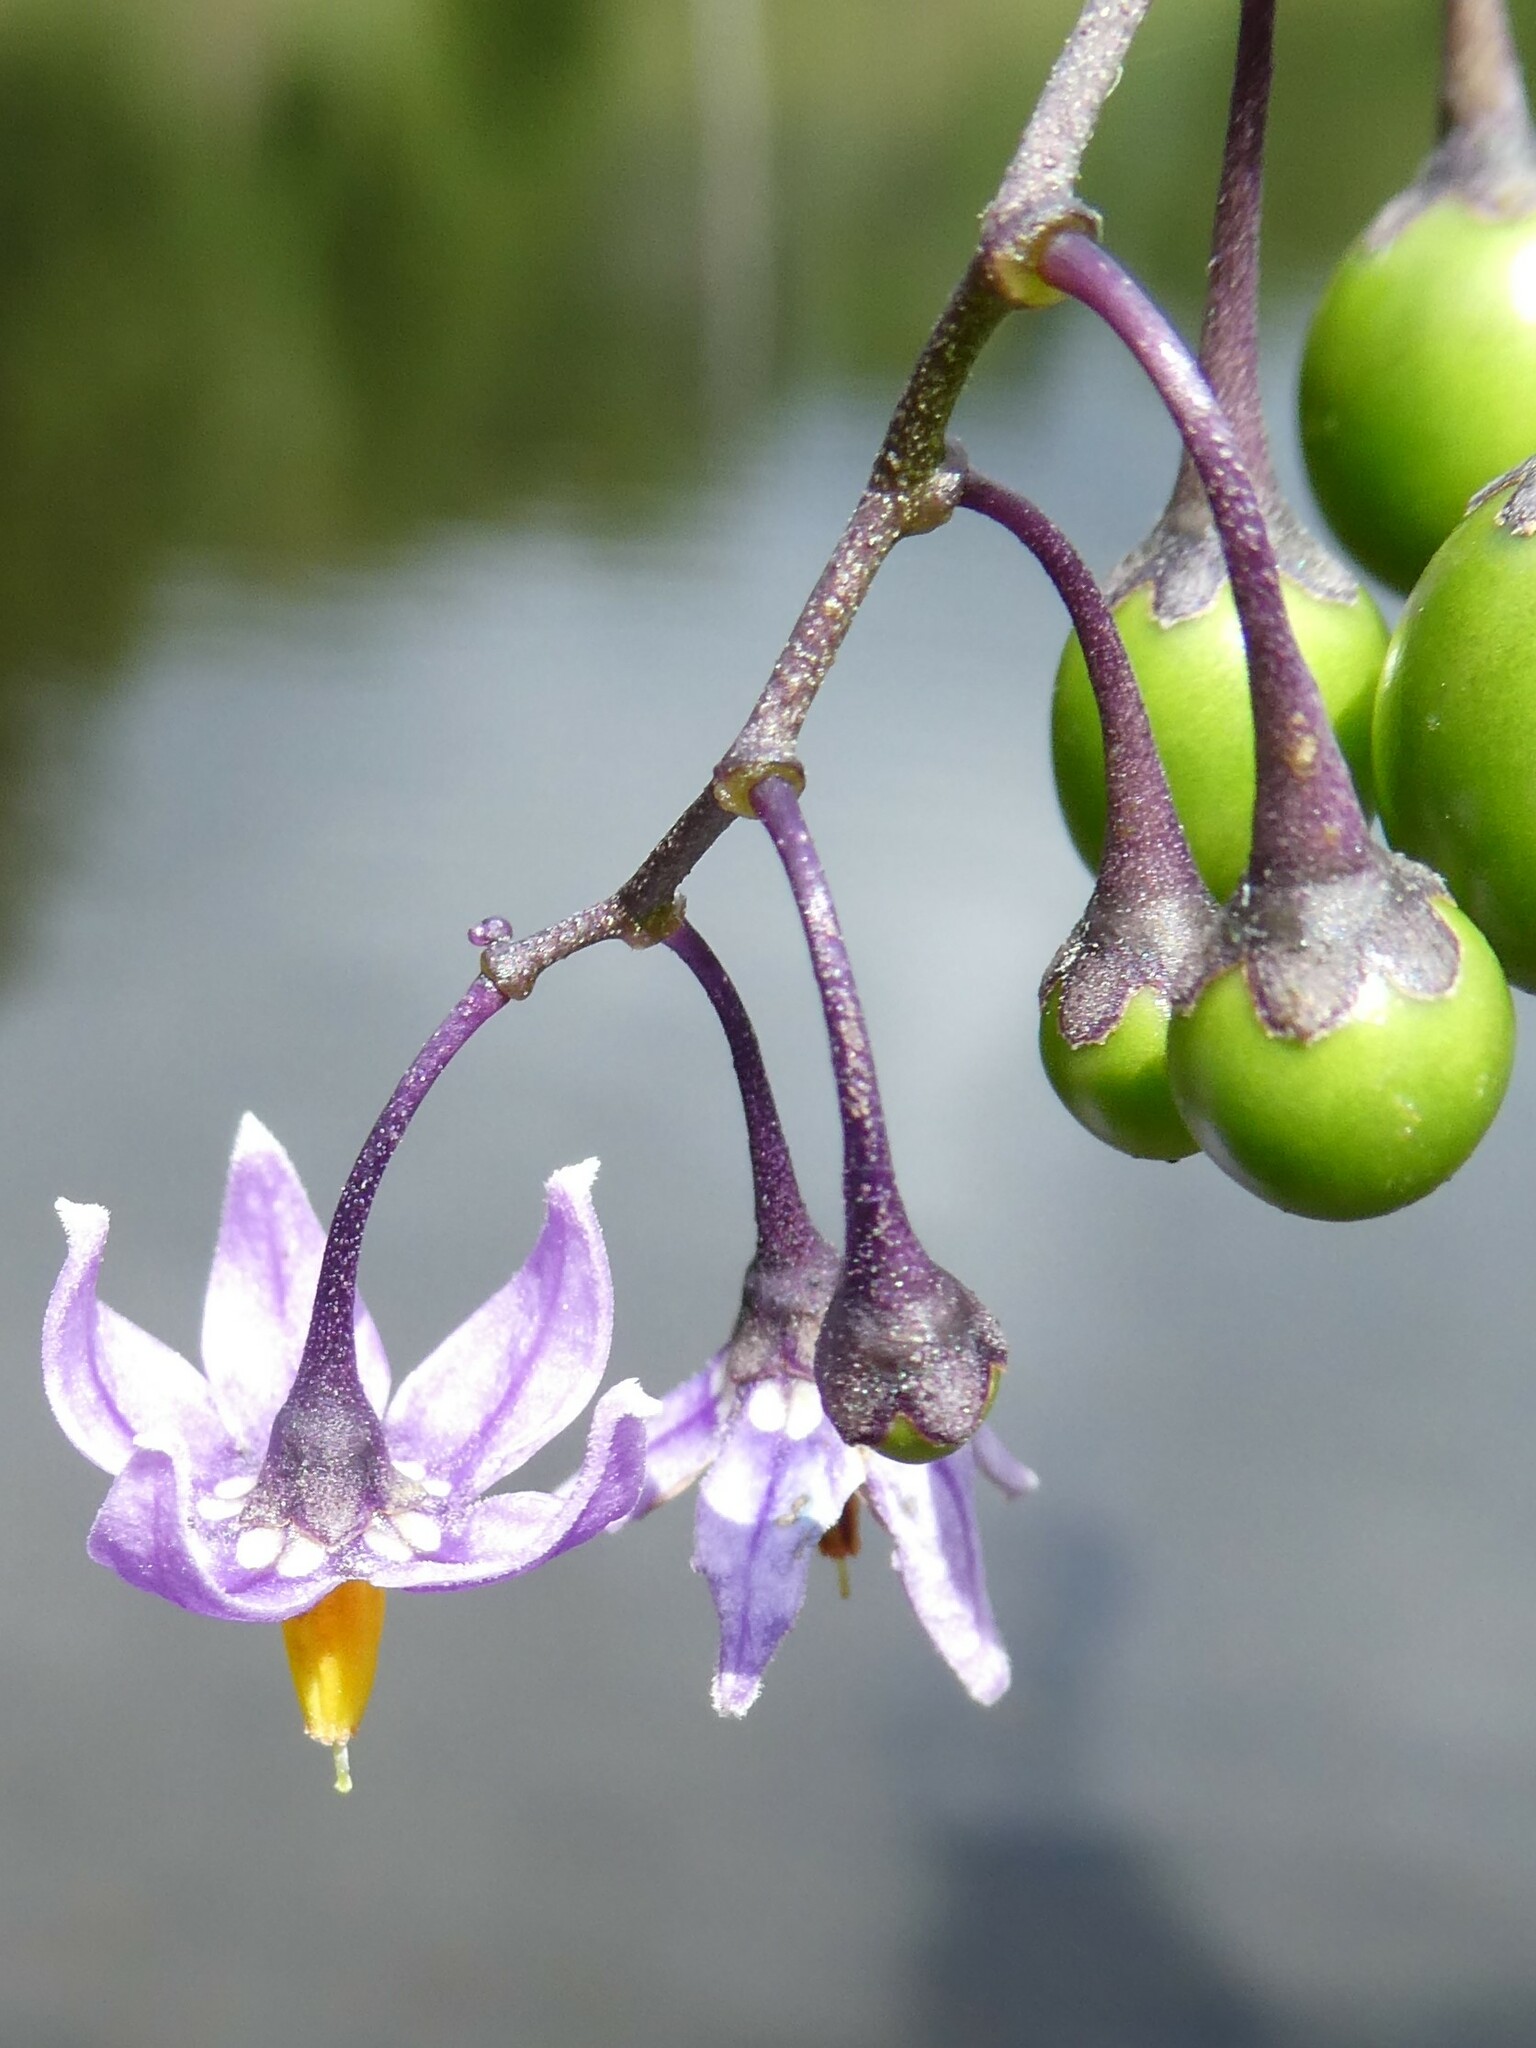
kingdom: Plantae
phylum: Tracheophyta
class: Magnoliopsida
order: Solanales
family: Solanaceae
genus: Solanum
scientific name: Solanum dulcamara
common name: Climbing nightshade
